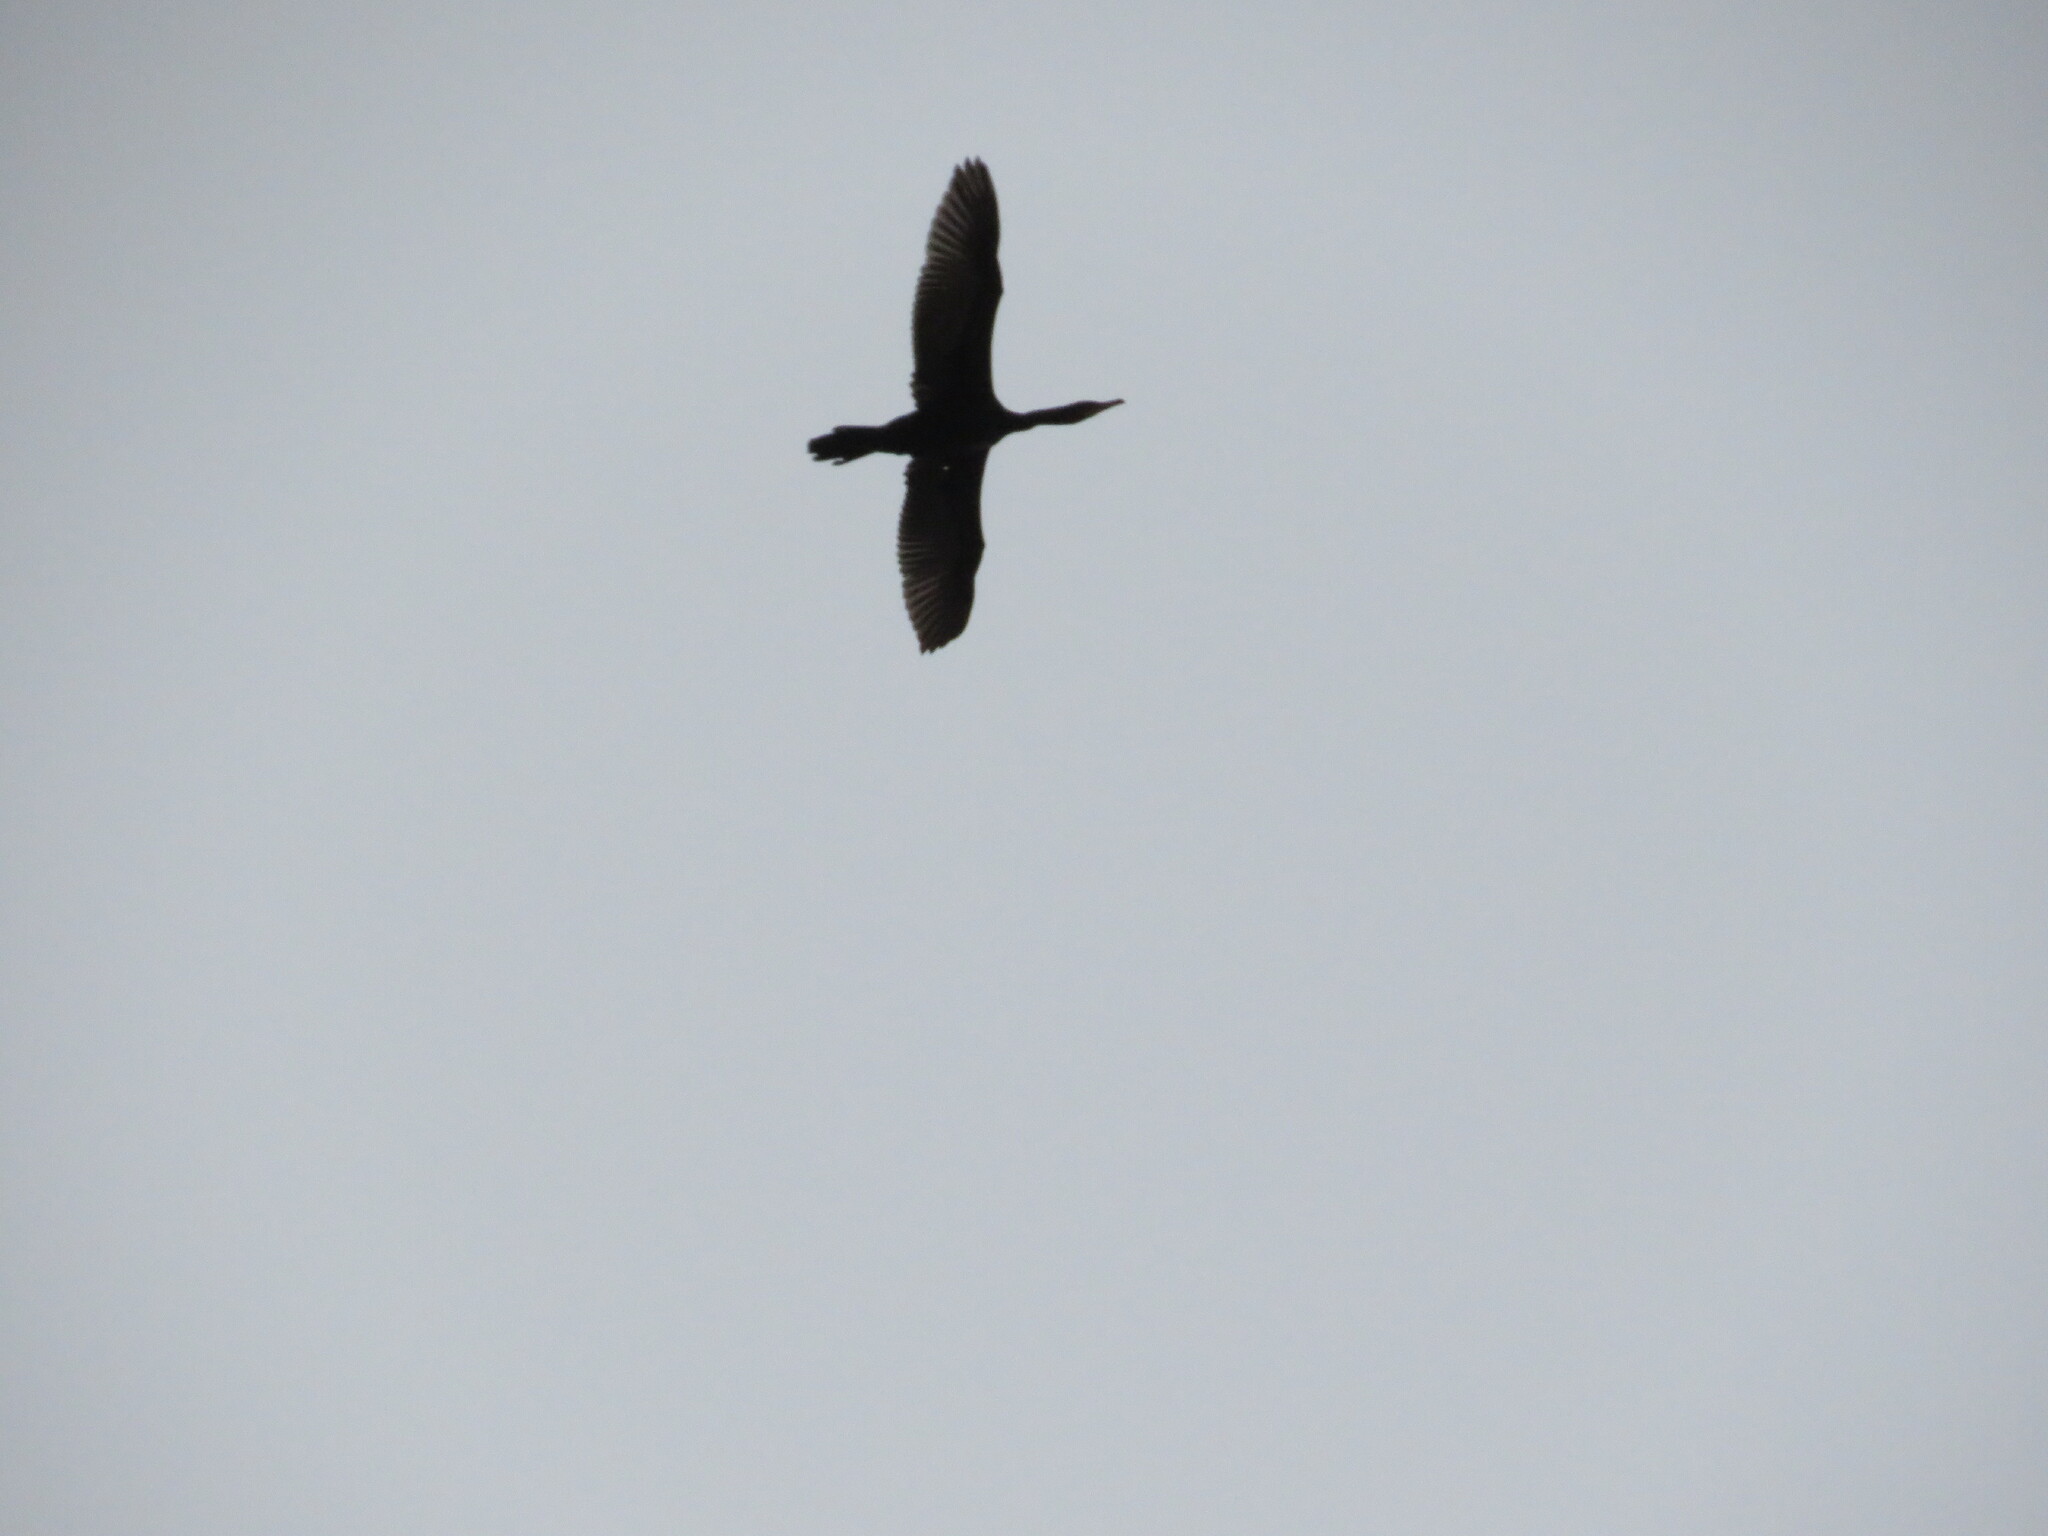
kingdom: Animalia
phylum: Chordata
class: Aves
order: Suliformes
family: Phalacrocoracidae
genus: Phalacrocorax
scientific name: Phalacrocorax brasilianus
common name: Neotropic cormorant
